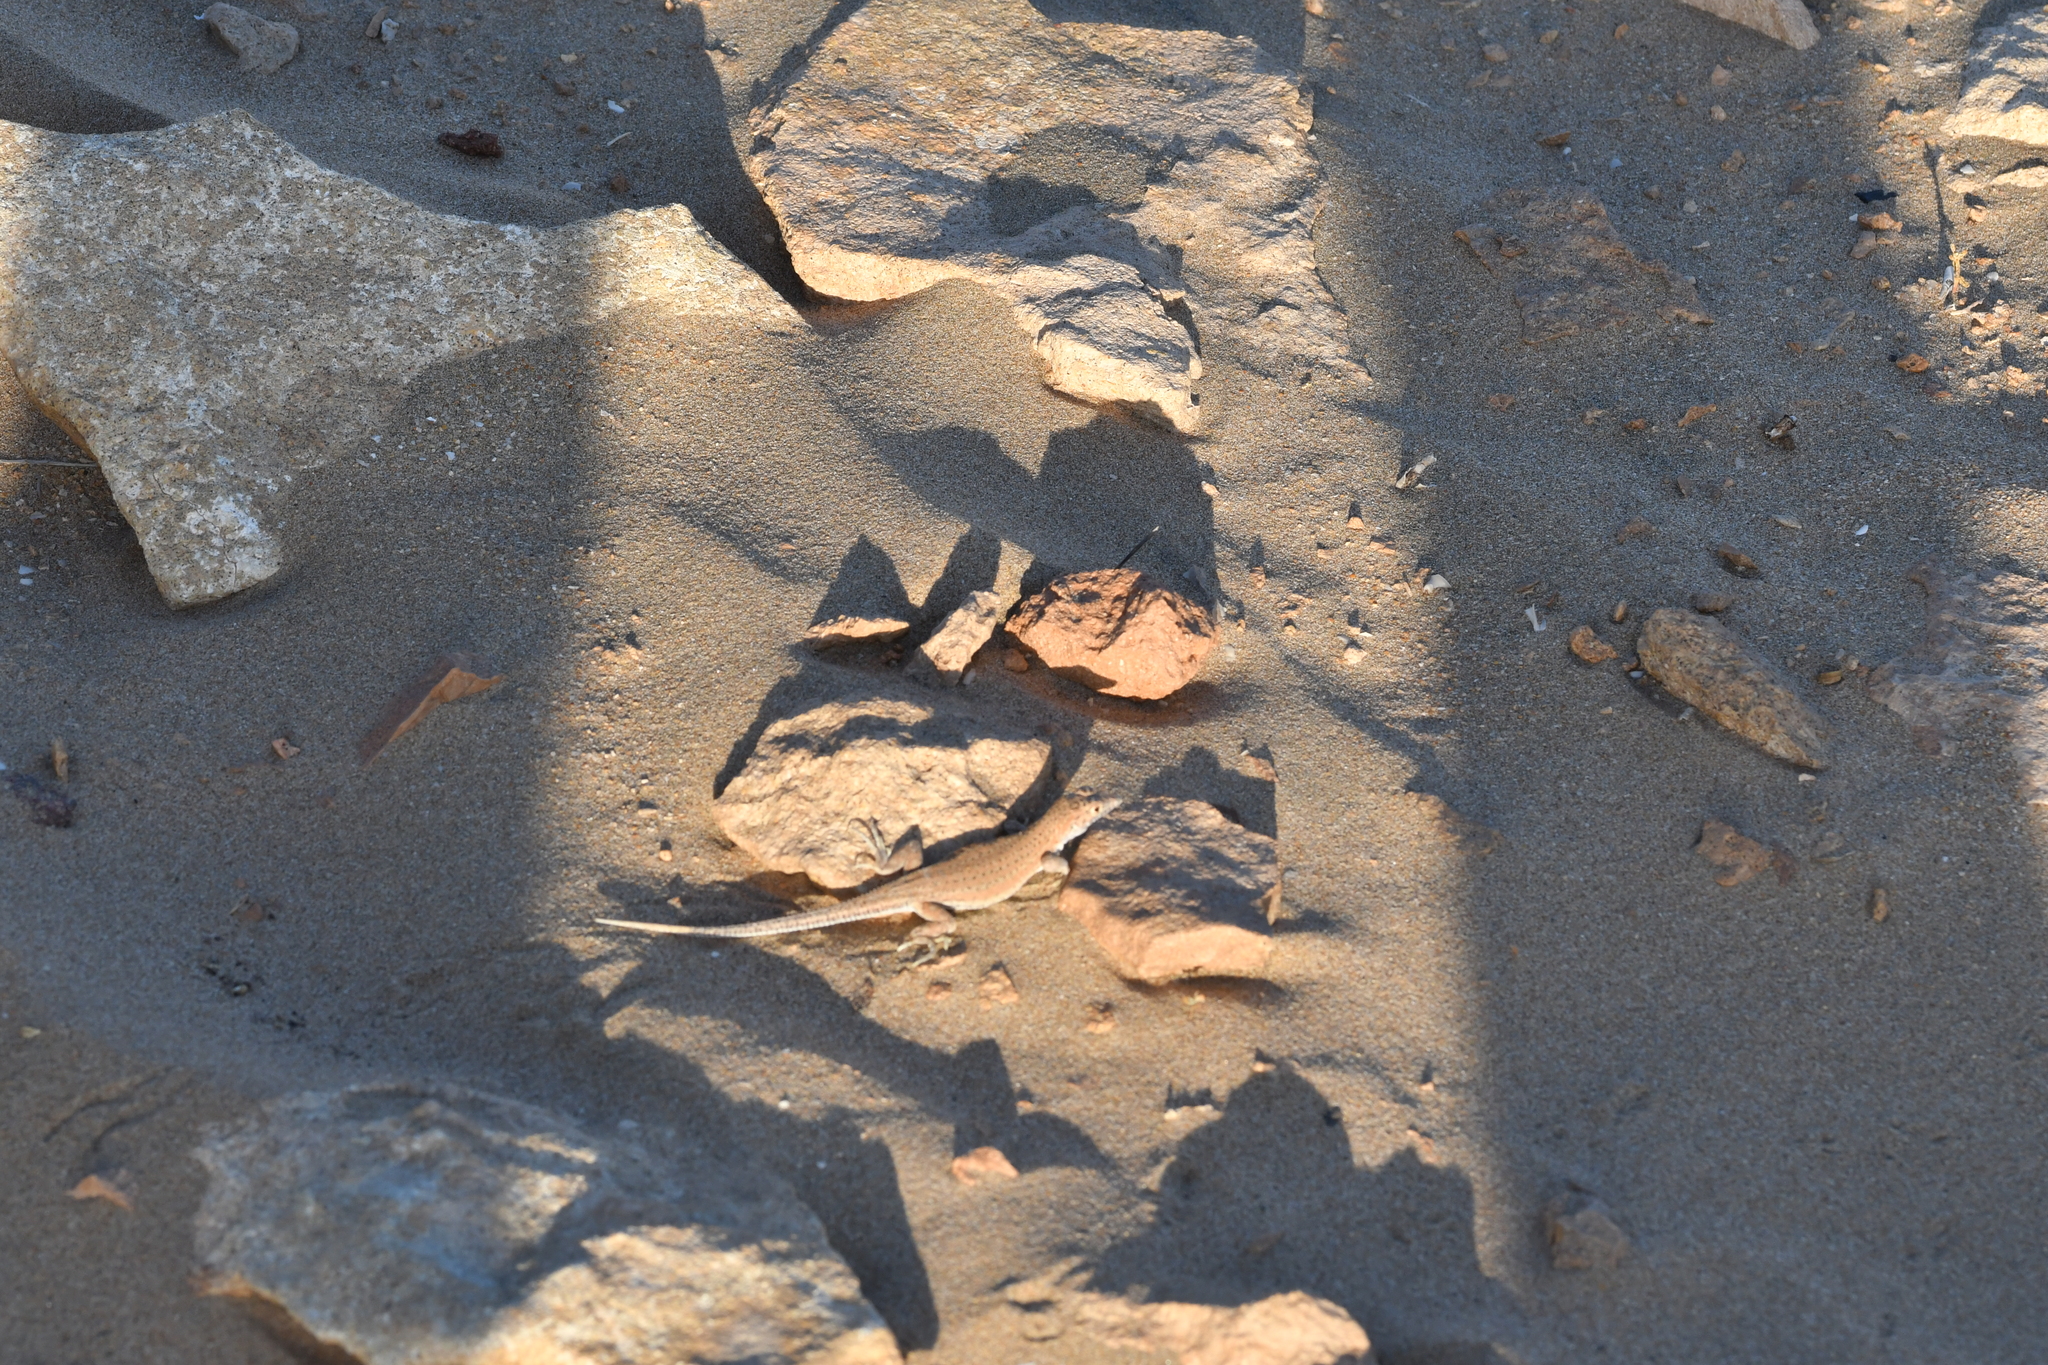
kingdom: Animalia
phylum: Chordata
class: Squamata
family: Lacertidae
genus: Acanthodactylus
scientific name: Acanthodactylus aureus
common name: Golden fringe-fingered lizard
